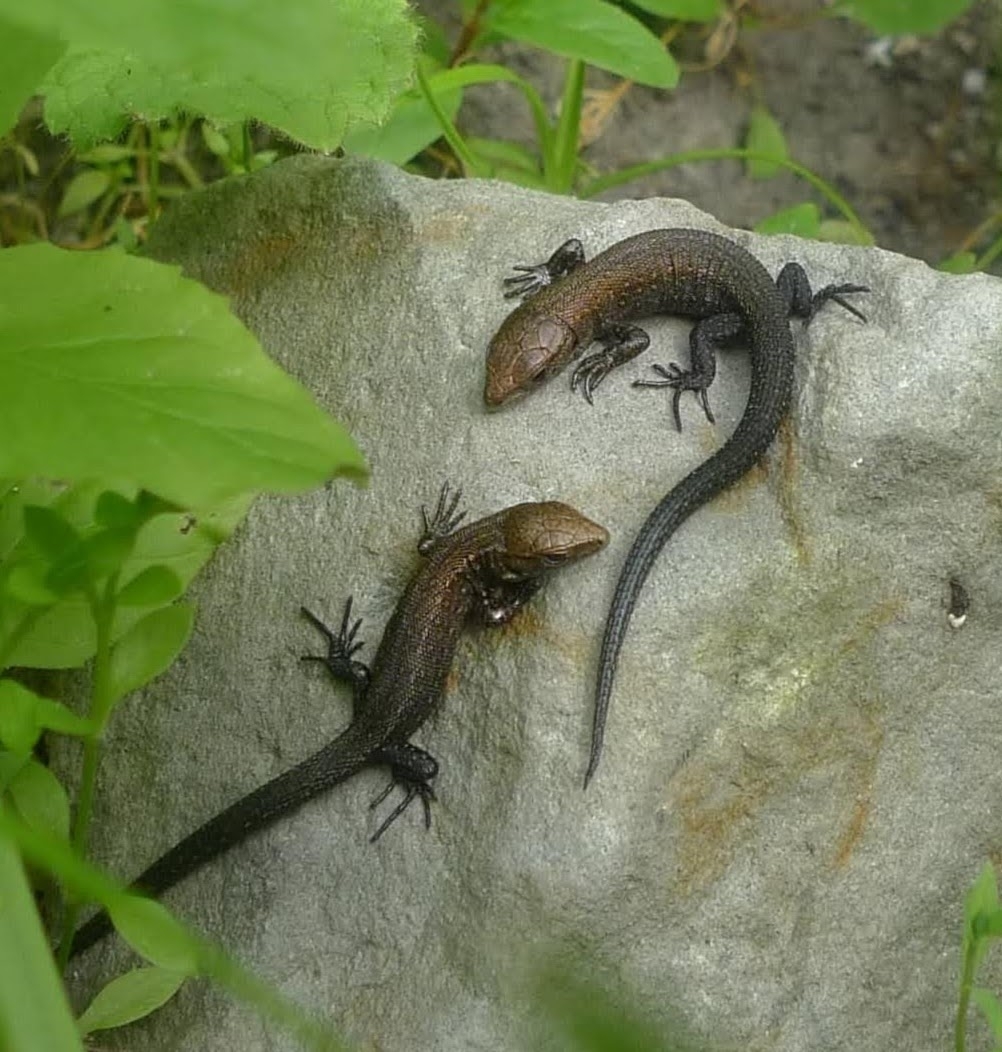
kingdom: Animalia
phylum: Chordata
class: Squamata
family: Lacertidae
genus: Zootoca
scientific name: Zootoca vivipara
